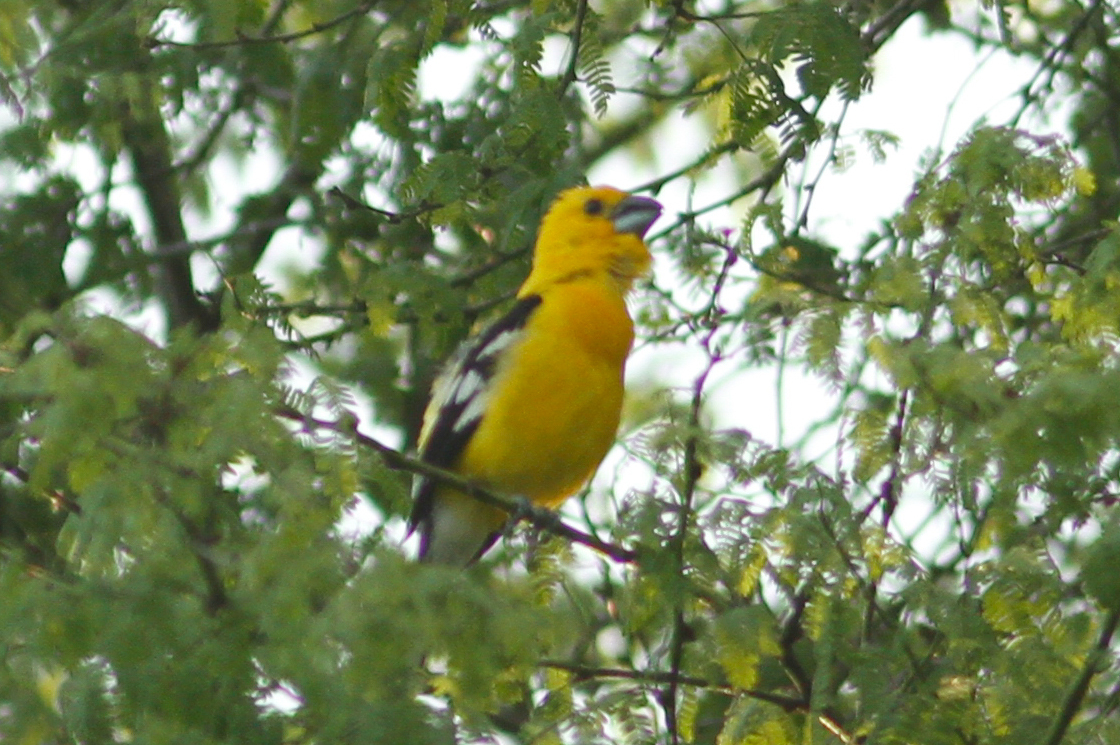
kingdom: Animalia
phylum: Chordata
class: Aves
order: Passeriformes
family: Cardinalidae
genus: Pheucticus
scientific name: Pheucticus chrysogaster
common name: Golden grosbeak
